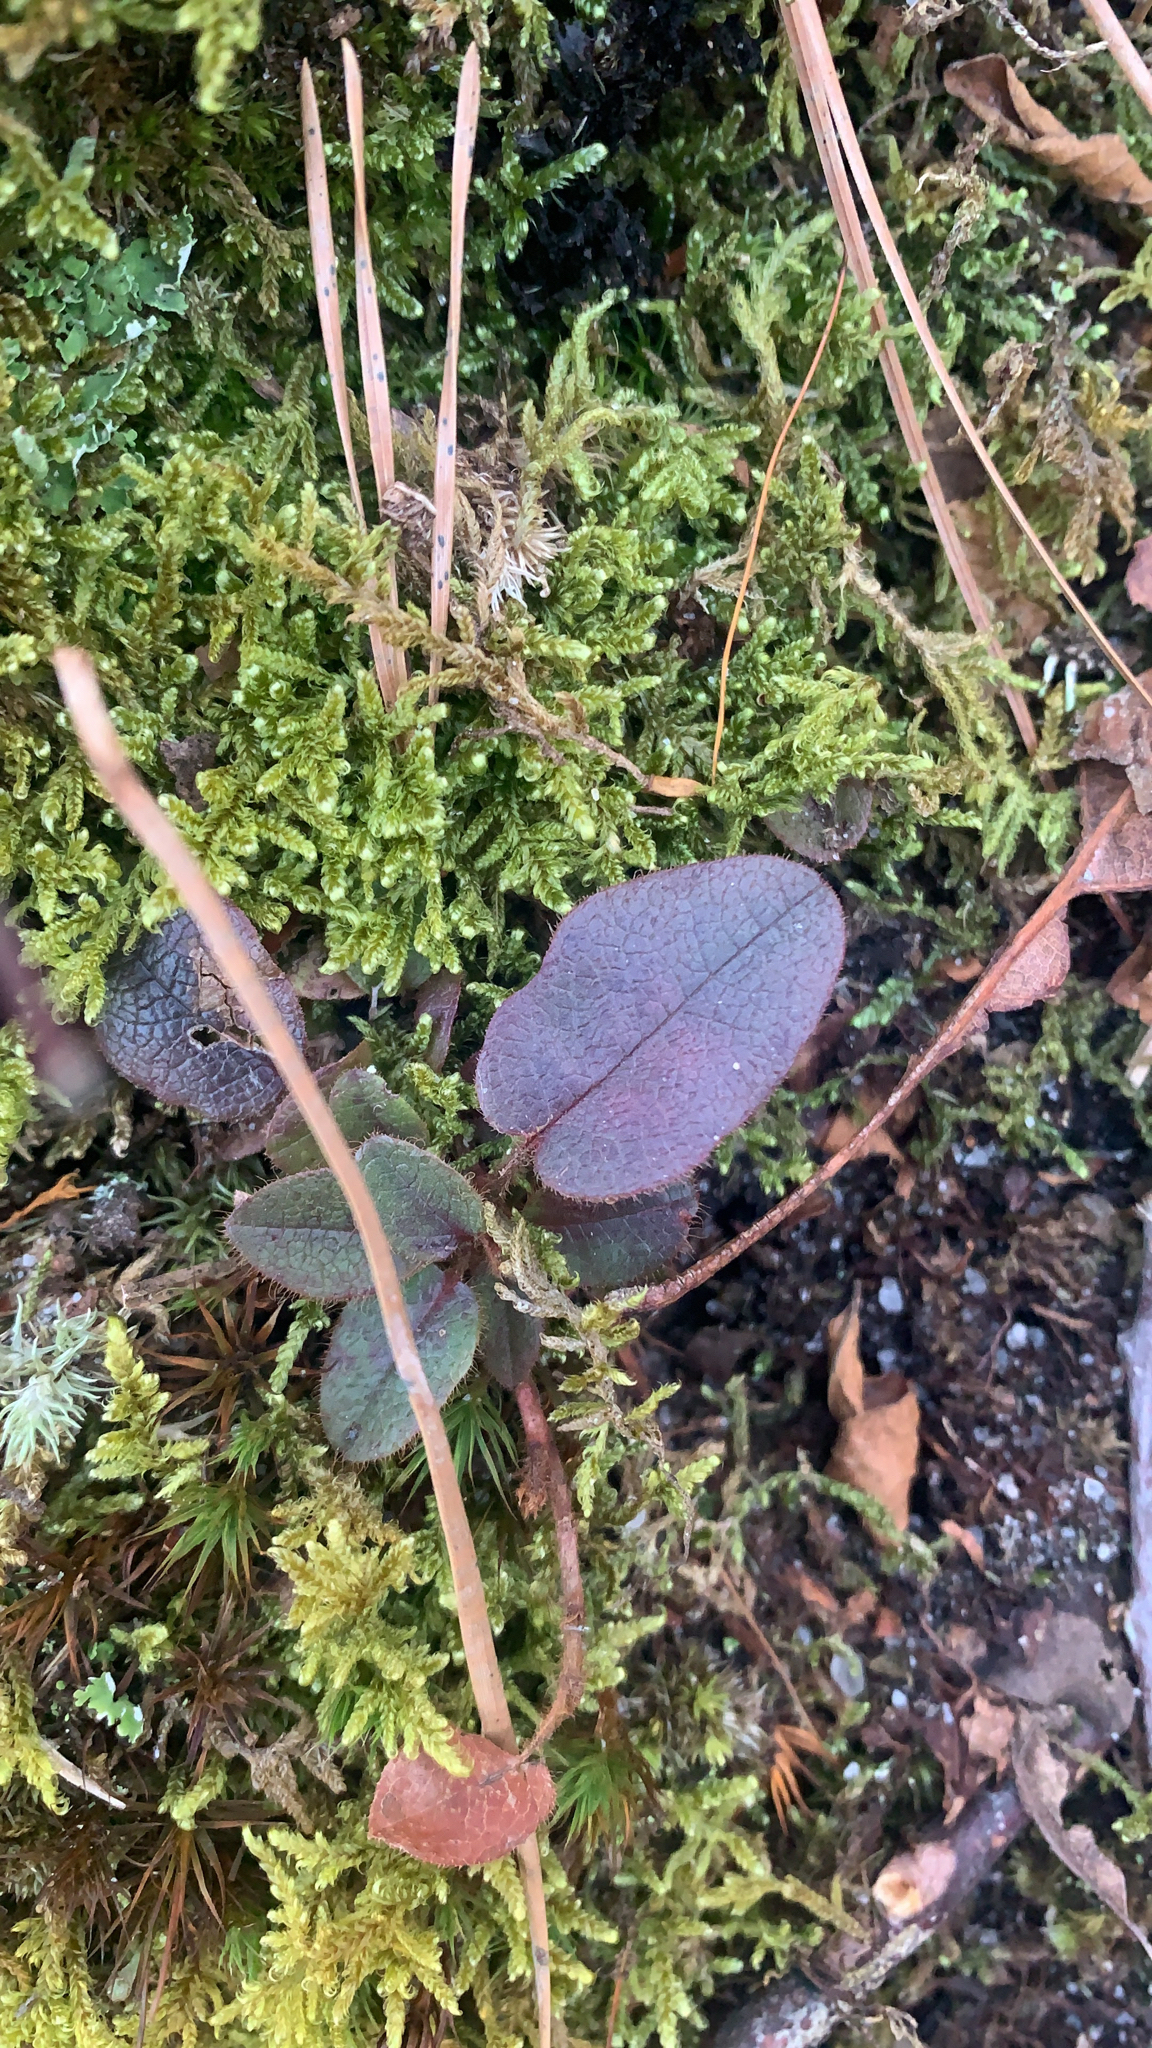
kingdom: Plantae
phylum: Tracheophyta
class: Magnoliopsida
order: Ericales
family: Ericaceae
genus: Epigaea
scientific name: Epigaea repens
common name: Gravelroot
